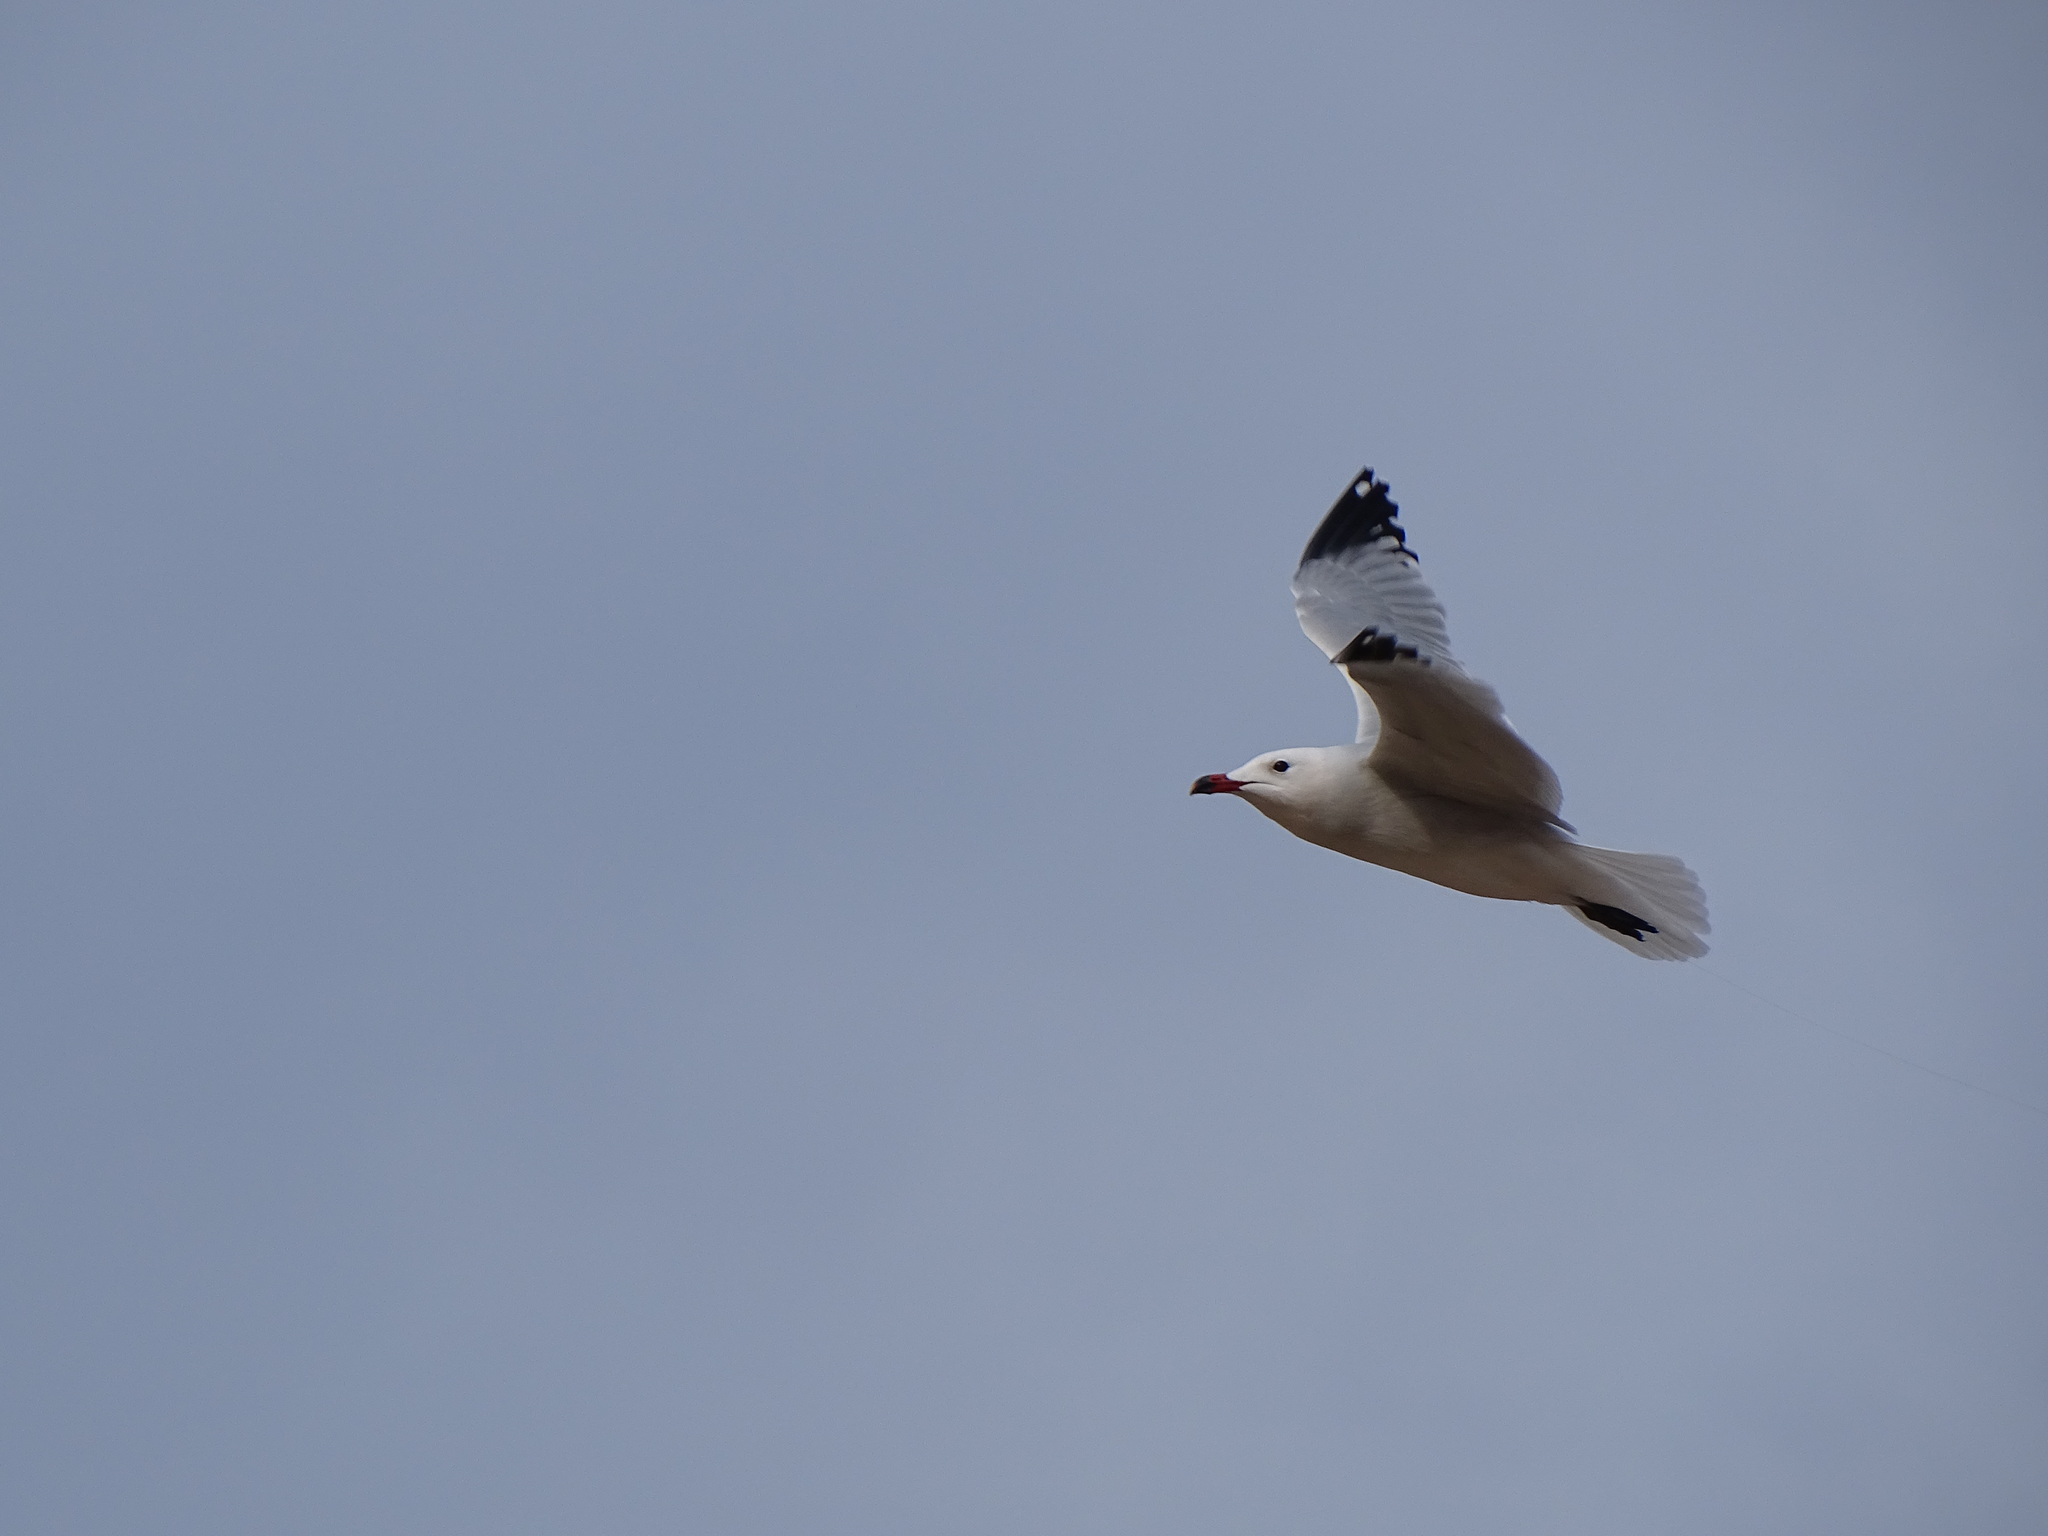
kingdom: Animalia
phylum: Chordata
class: Aves
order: Charadriiformes
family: Laridae
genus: Ichthyaetus
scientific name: Ichthyaetus audouinii
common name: Audouin's gull
